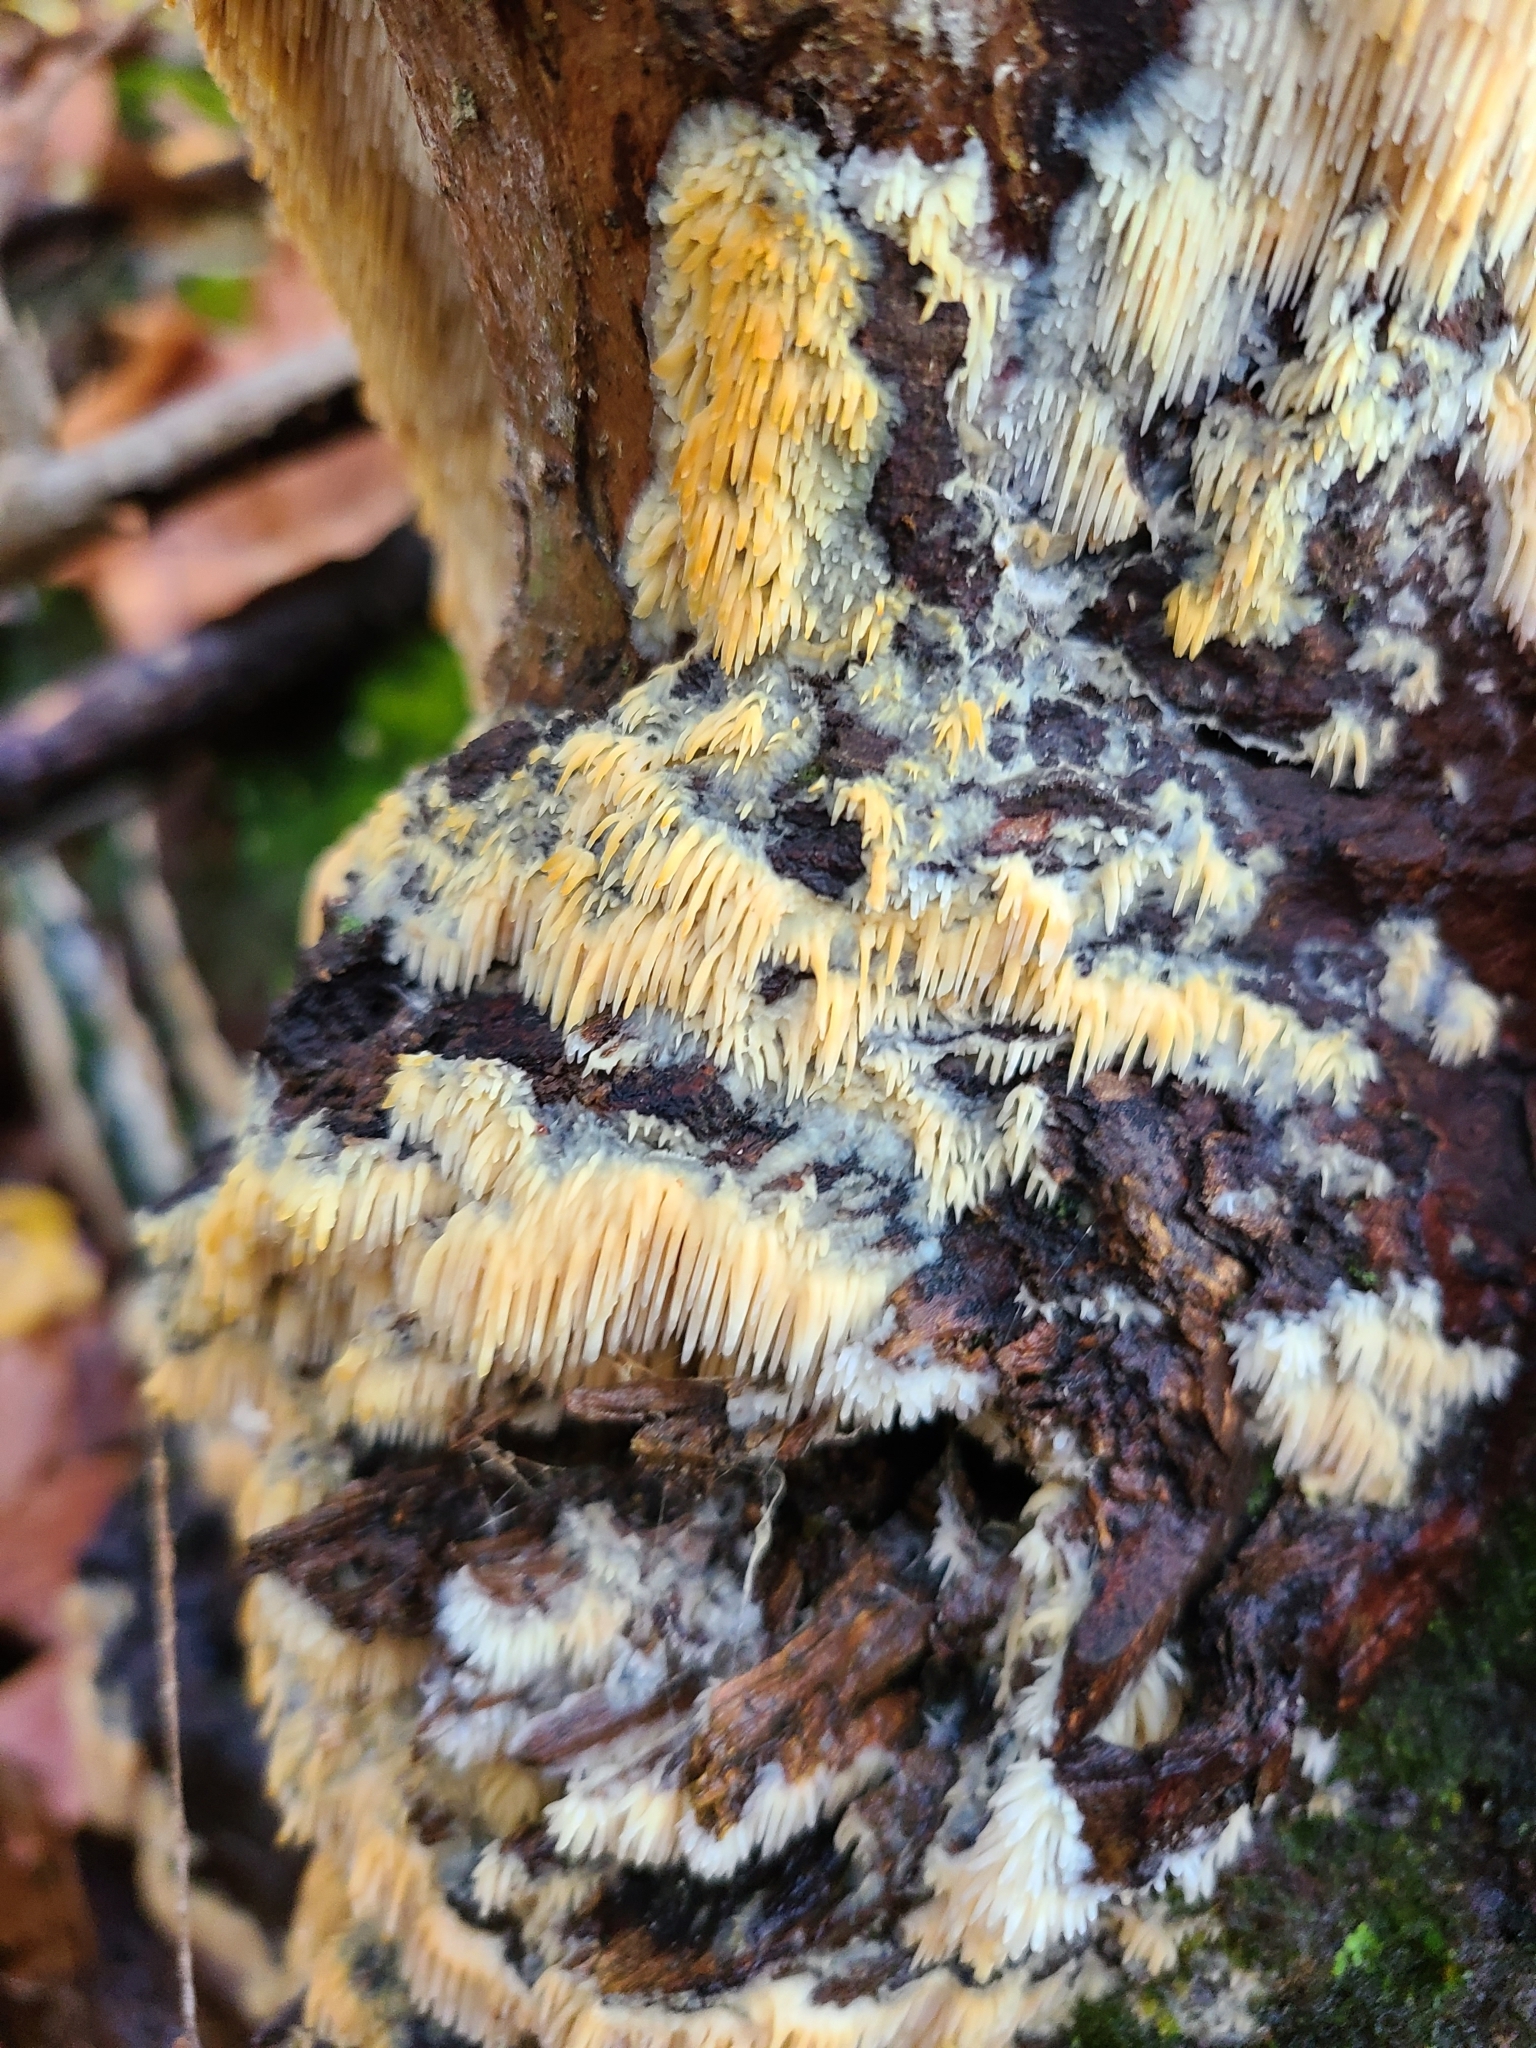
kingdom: Fungi
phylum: Basidiomycota
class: Agaricomycetes
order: Agaricales
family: Radulomycetaceae
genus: Radulomyces
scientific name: Radulomyces copelandii
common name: Asian beauty
